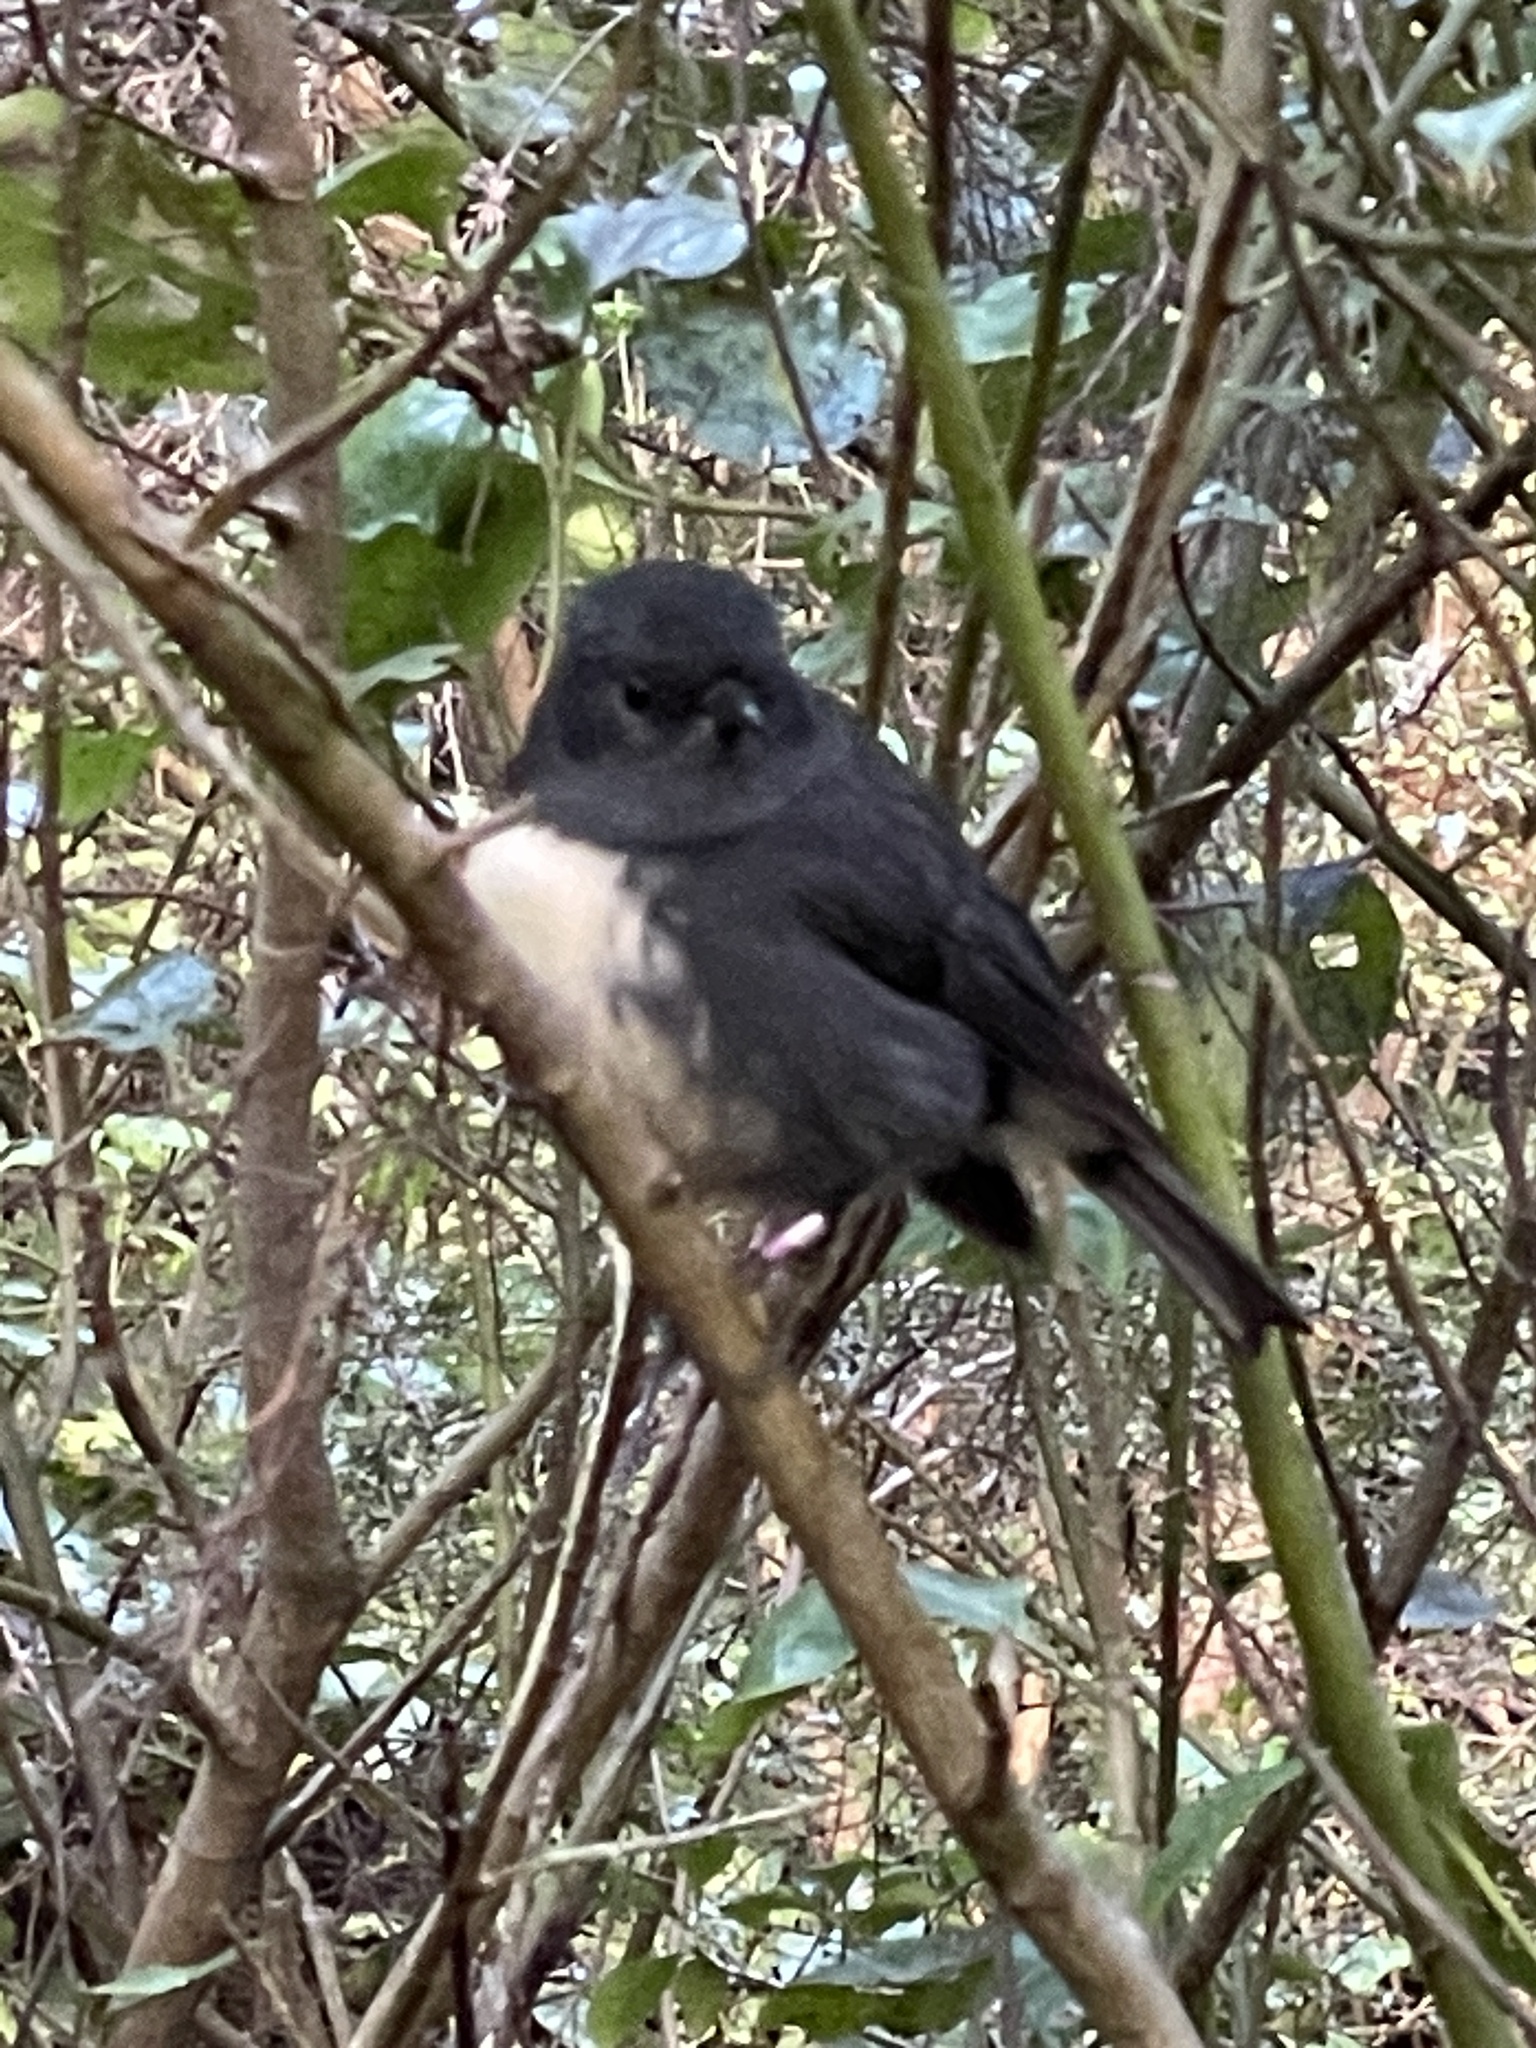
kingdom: Animalia
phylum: Chordata
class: Aves
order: Passeriformes
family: Petroicidae
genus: Petroica
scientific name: Petroica australis
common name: New zealand robin
